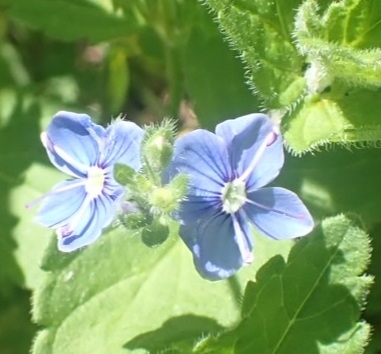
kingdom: Plantae
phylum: Tracheophyta
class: Magnoliopsida
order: Lamiales
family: Plantaginaceae
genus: Veronica
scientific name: Veronica chamaedrys
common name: Germander speedwell
